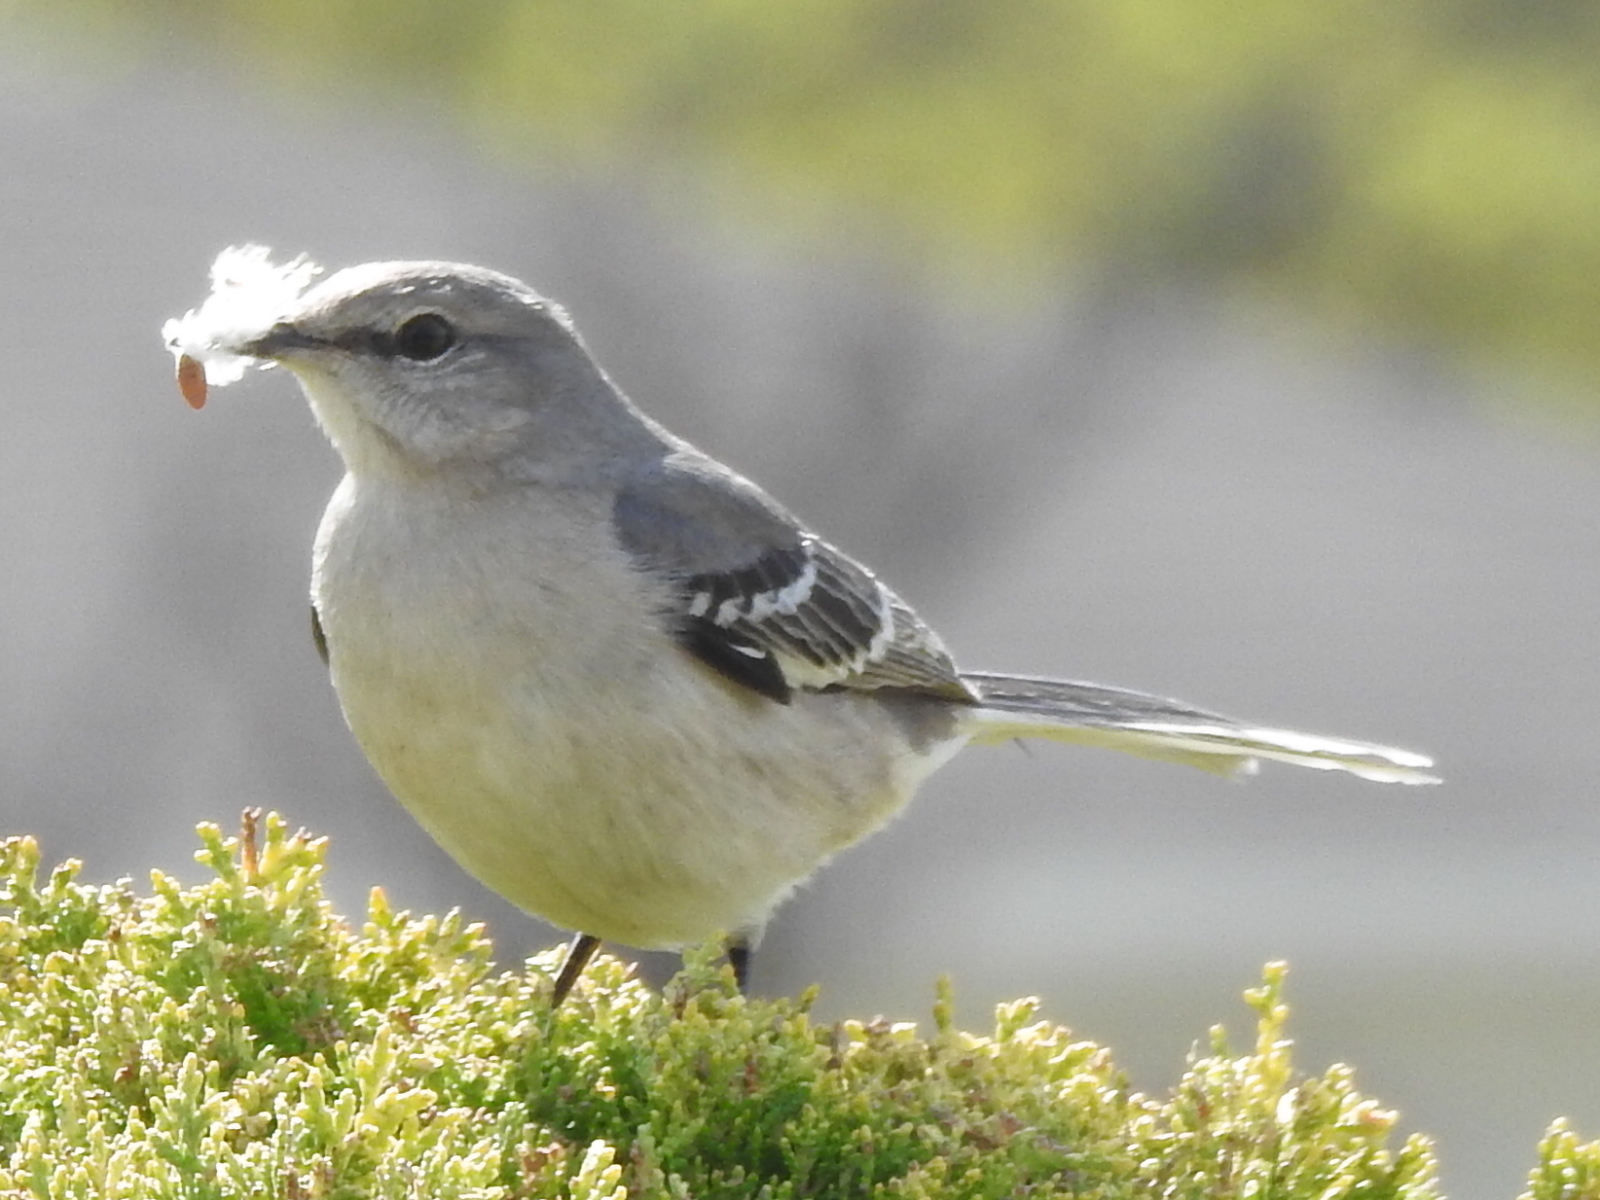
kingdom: Animalia
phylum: Chordata
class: Aves
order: Passeriformes
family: Mimidae
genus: Mimus
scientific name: Mimus polyglottos
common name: Northern mockingbird
